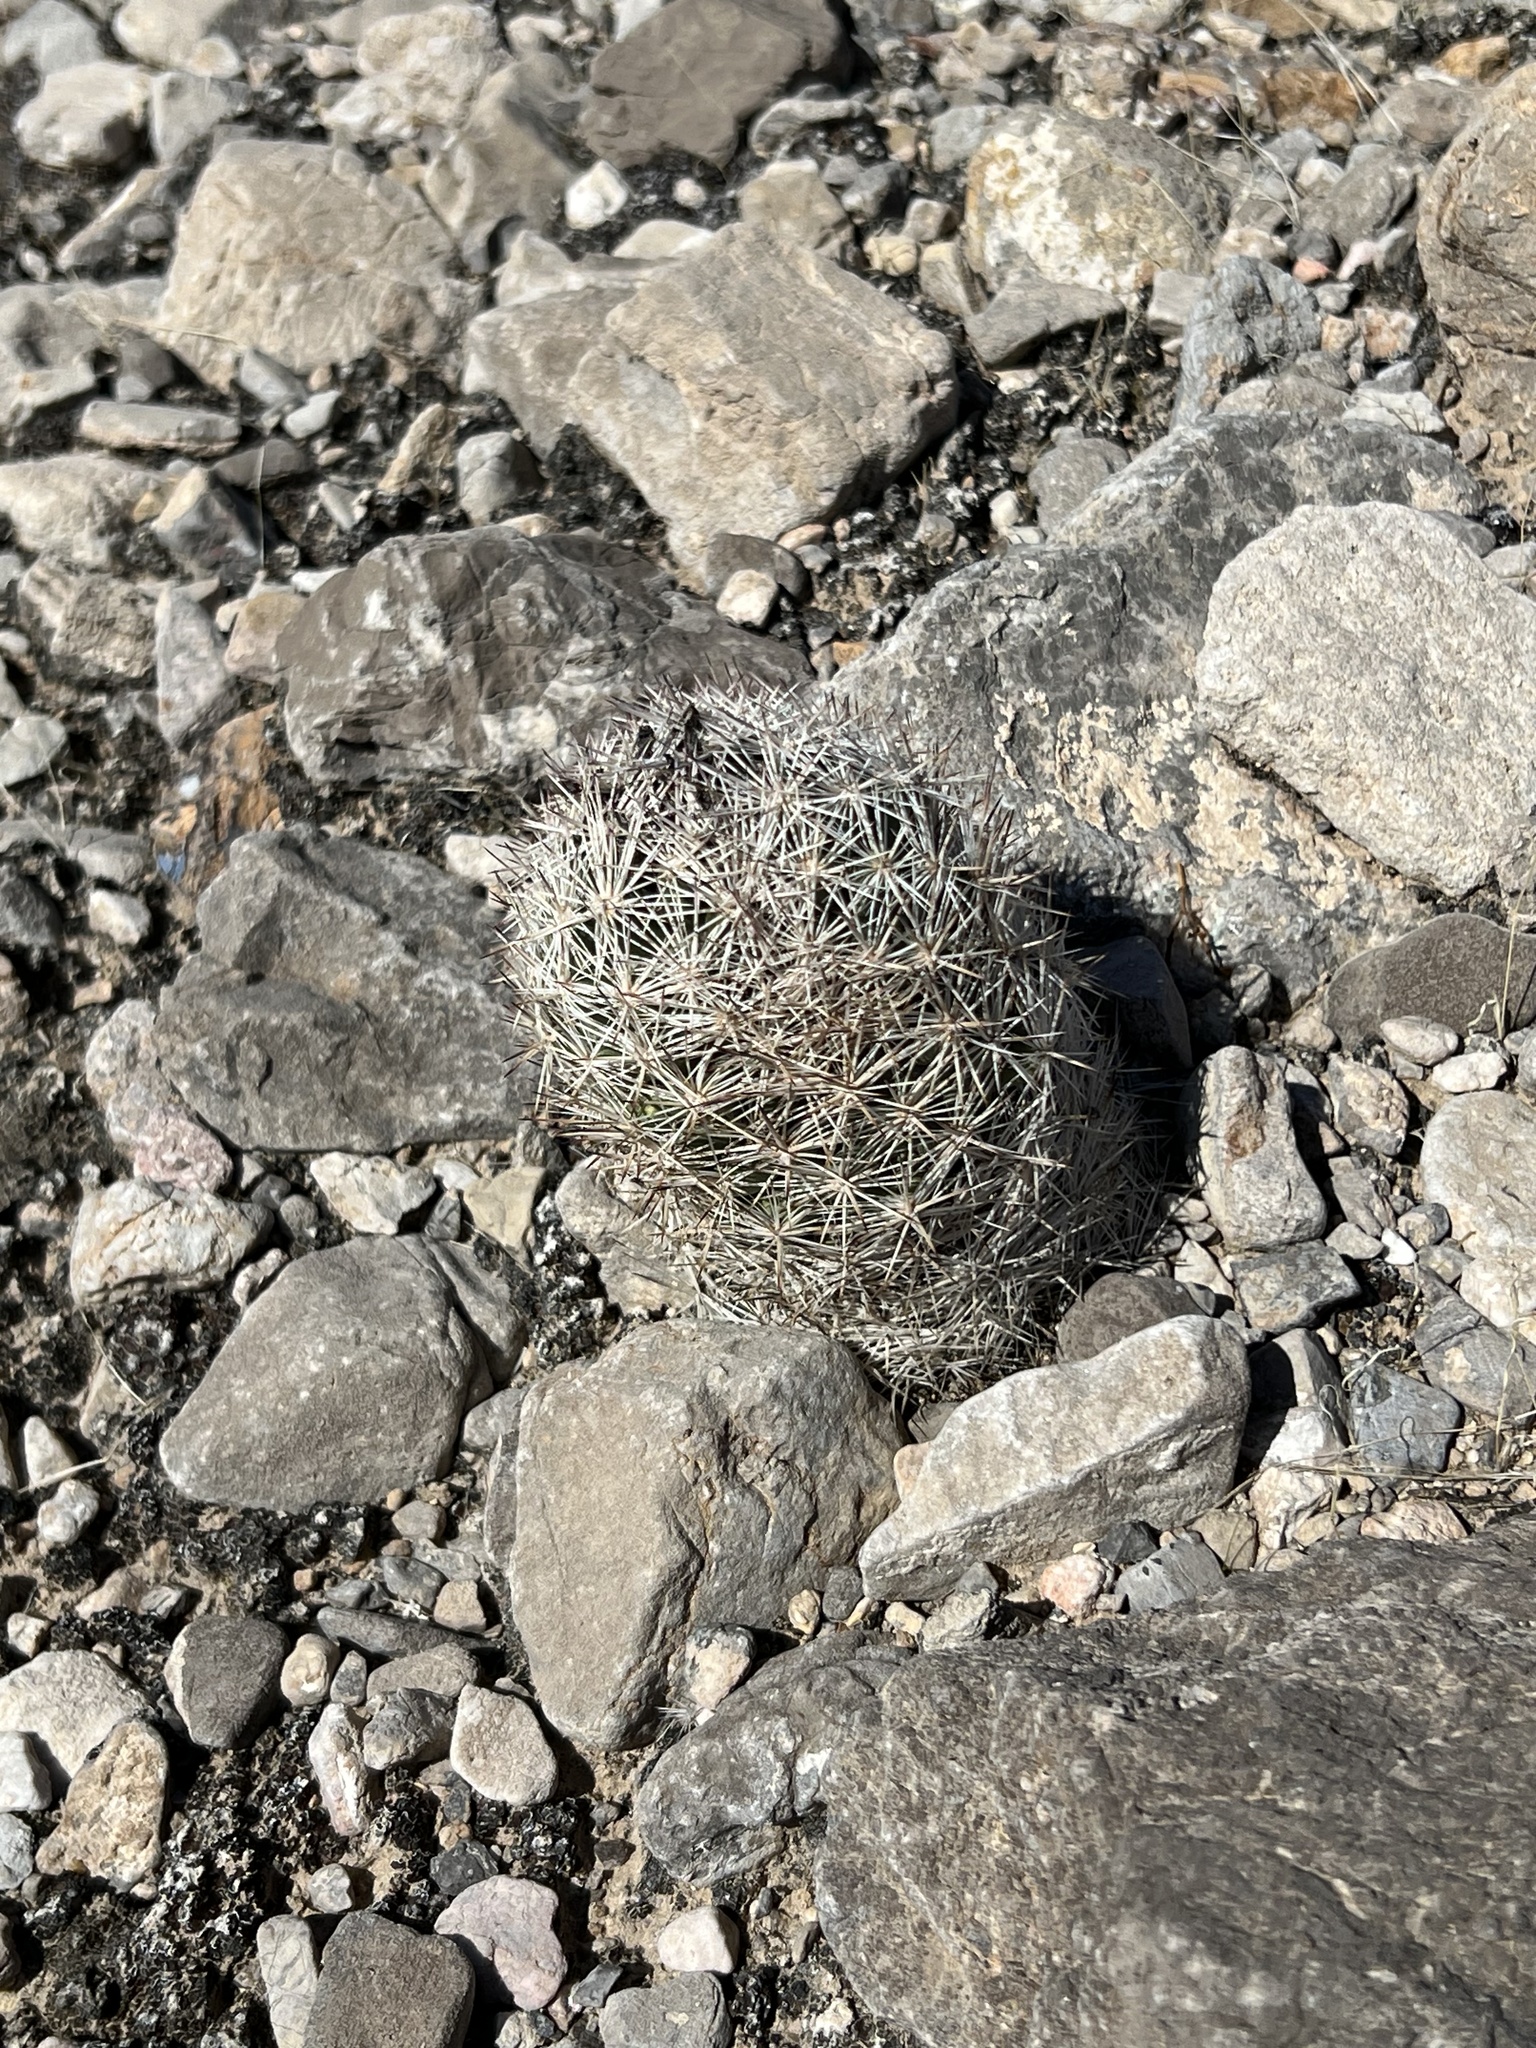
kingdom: Plantae
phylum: Tracheophyta
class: Magnoliopsida
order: Caryophyllales
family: Cactaceae
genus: Pelecyphora
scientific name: Pelecyphora dasyacantha
